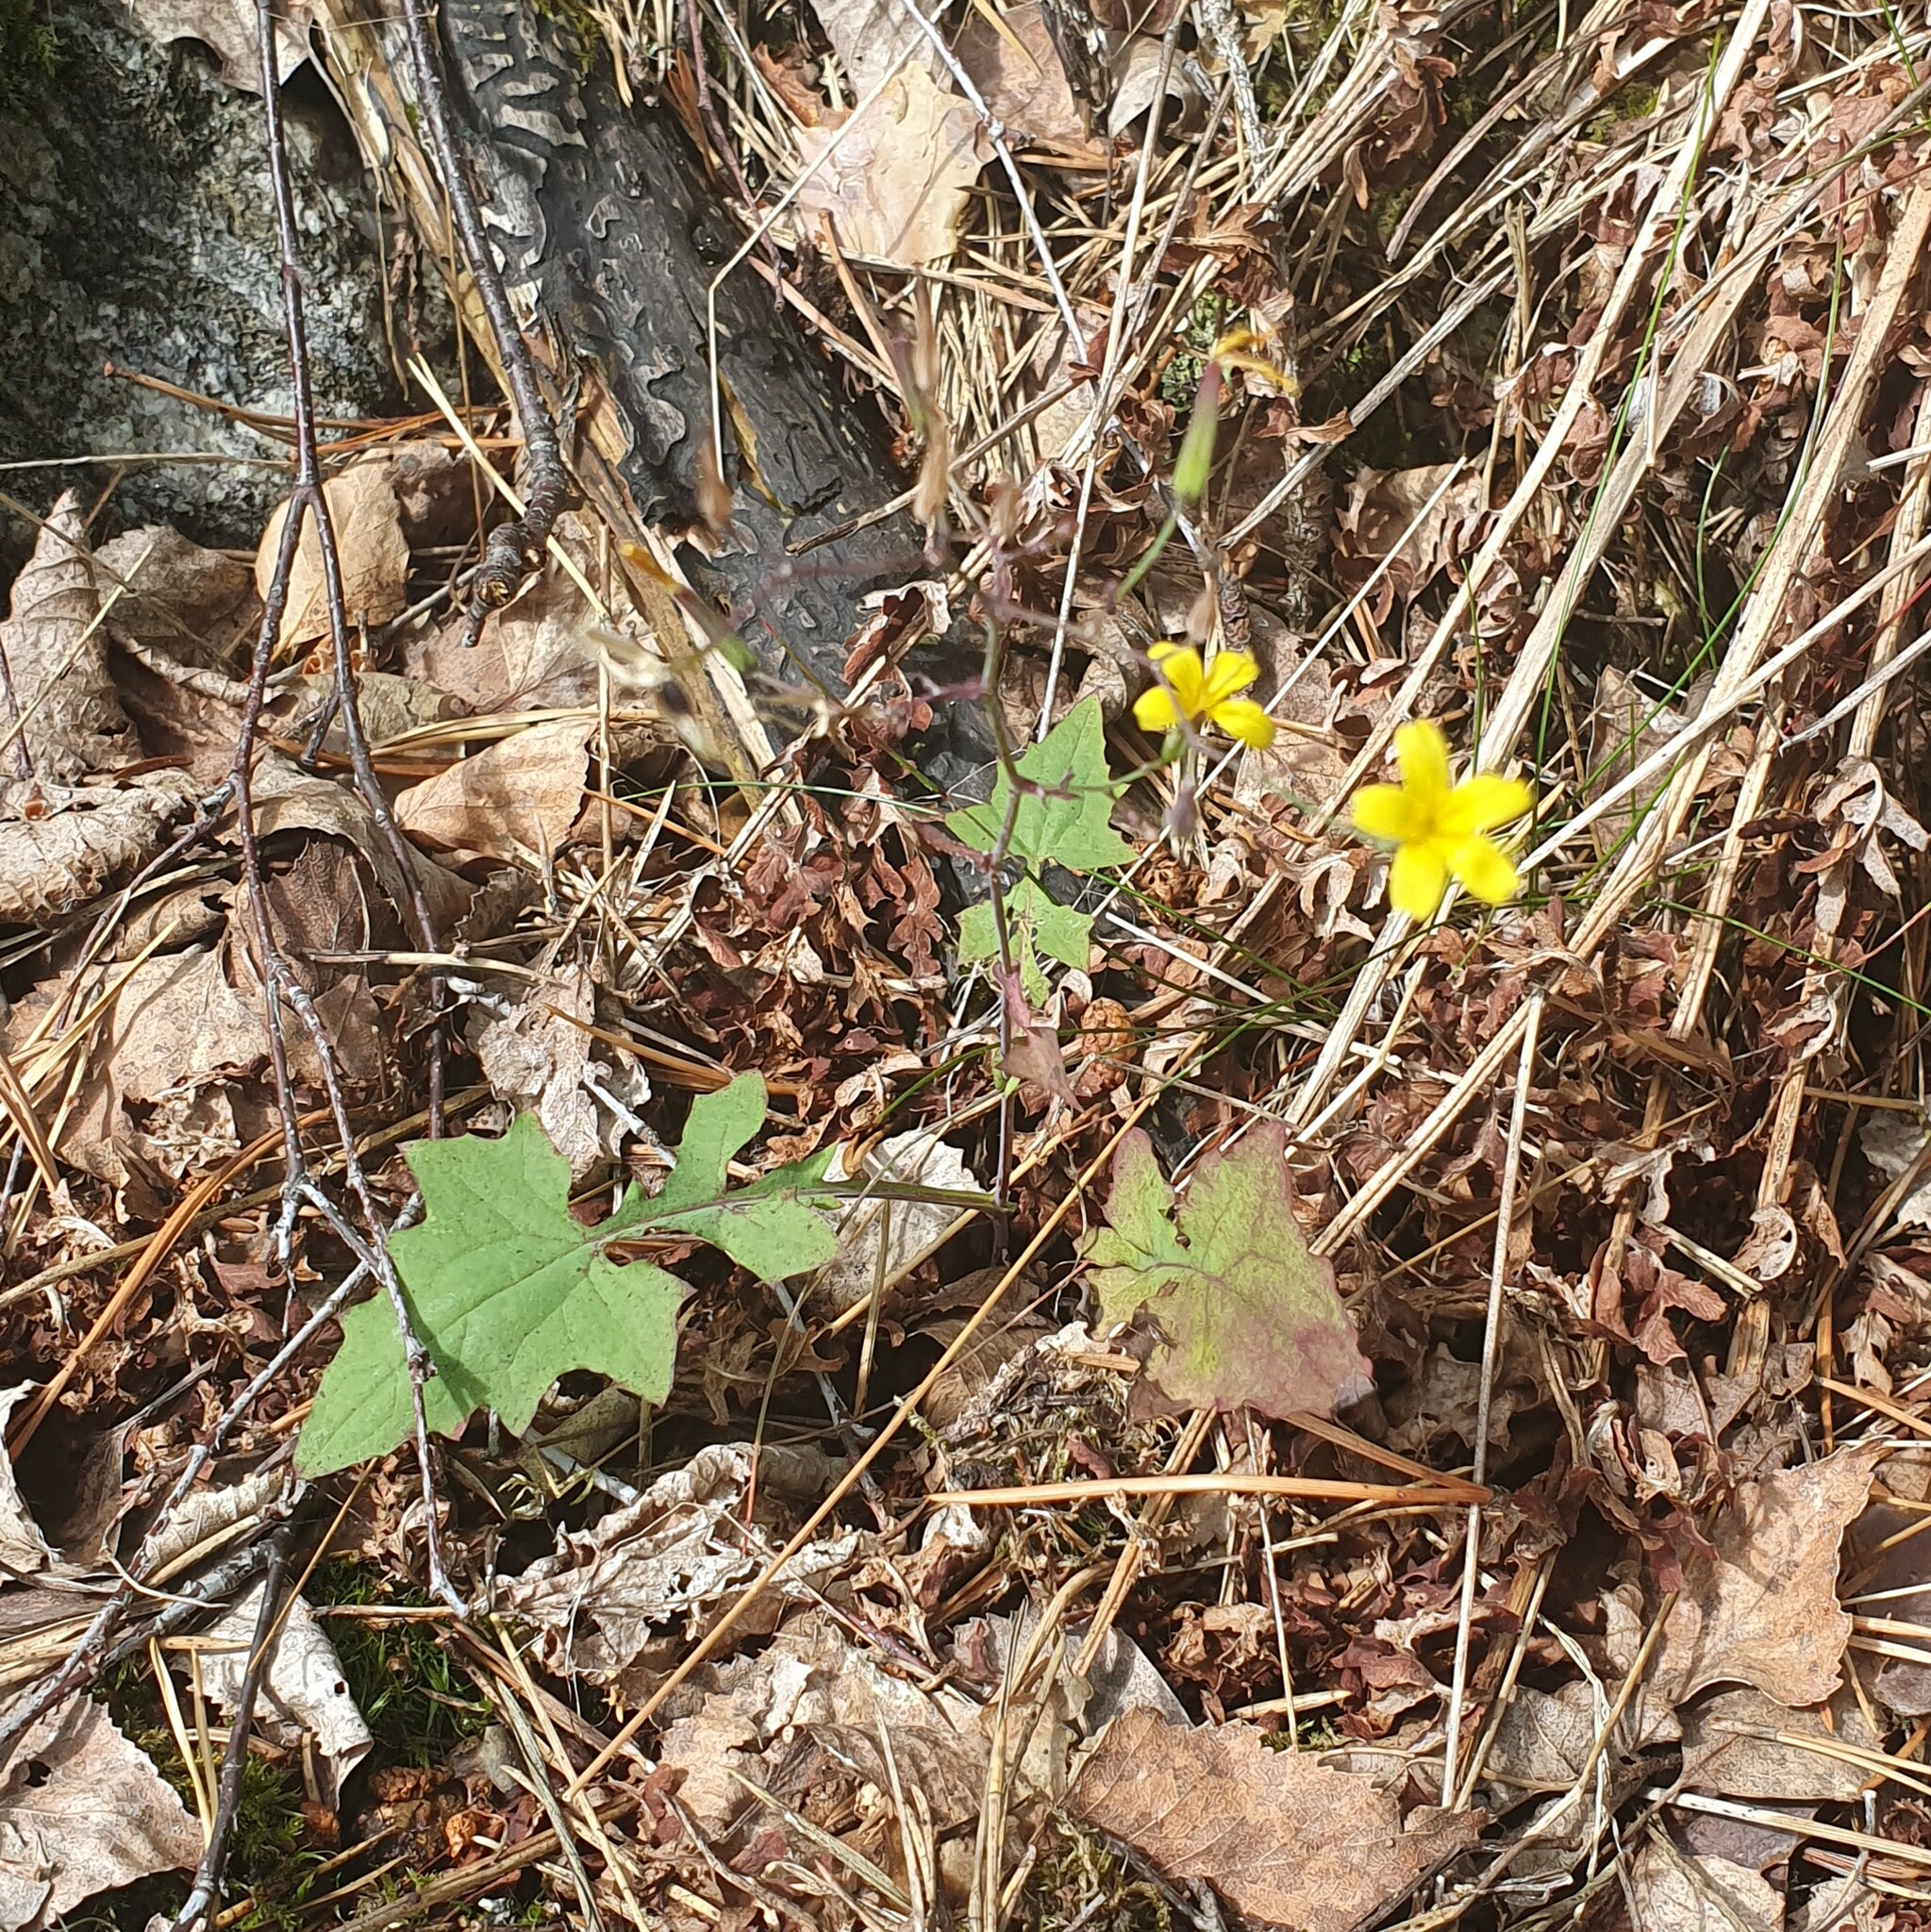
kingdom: Plantae
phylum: Tracheophyta
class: Magnoliopsida
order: Asterales
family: Asteraceae
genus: Mycelis
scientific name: Mycelis muralis
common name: Wall lettuce
